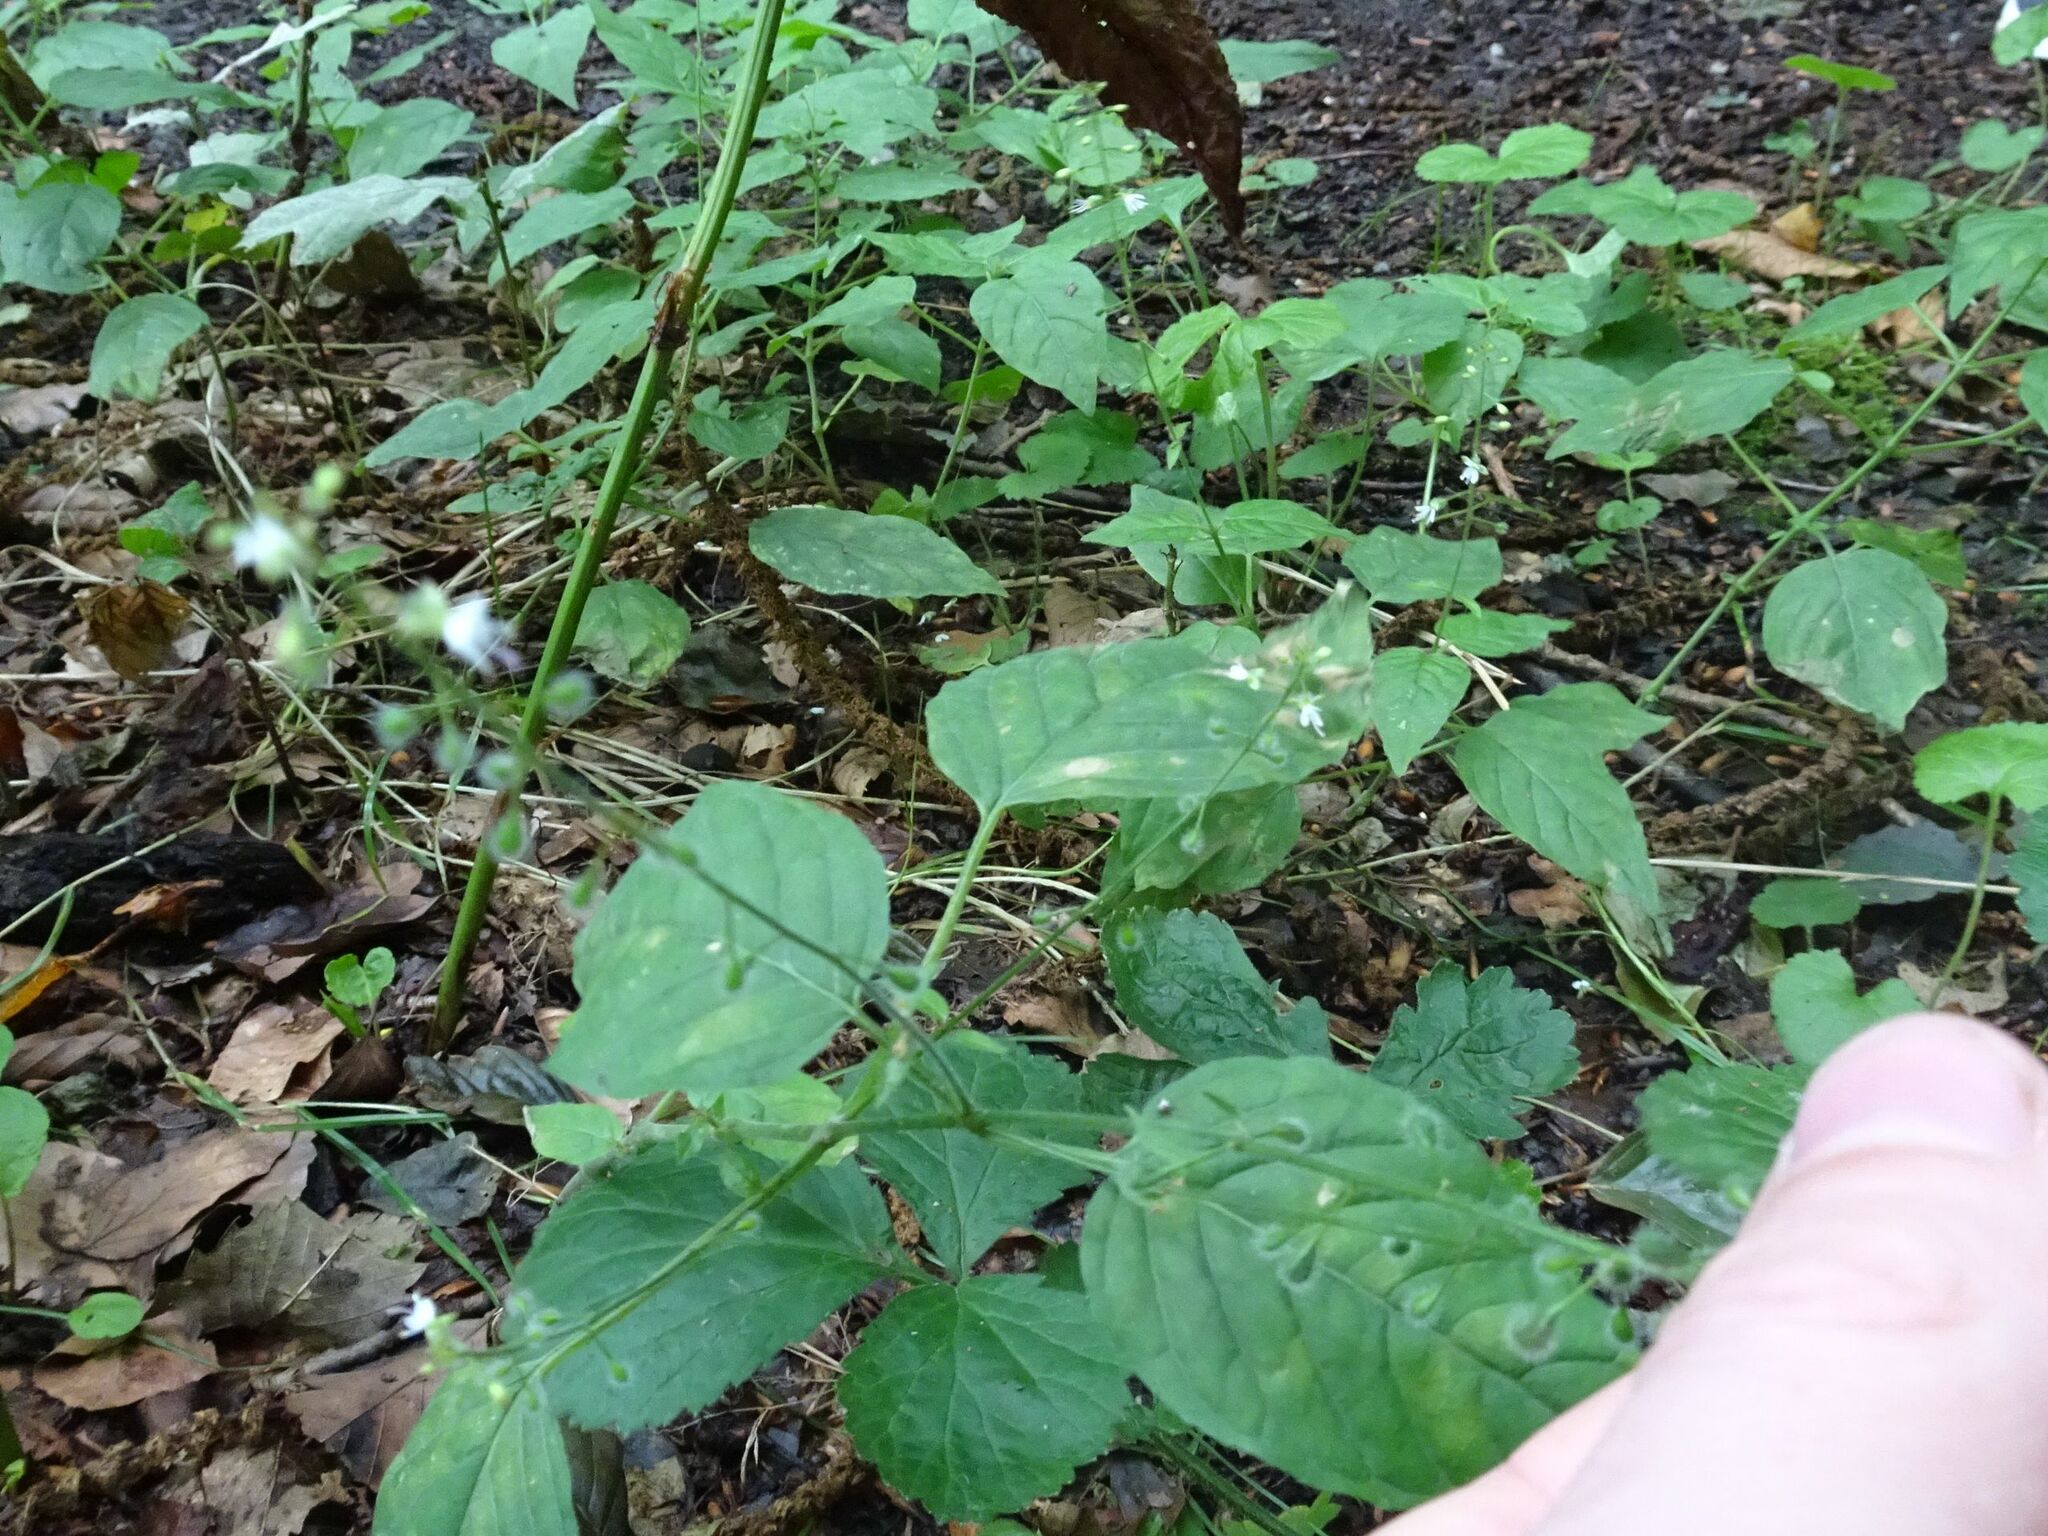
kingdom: Plantae
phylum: Tracheophyta
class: Magnoliopsida
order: Myrtales
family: Onagraceae
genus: Circaea
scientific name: Circaea lutetiana
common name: Enchanter's-nightshade
